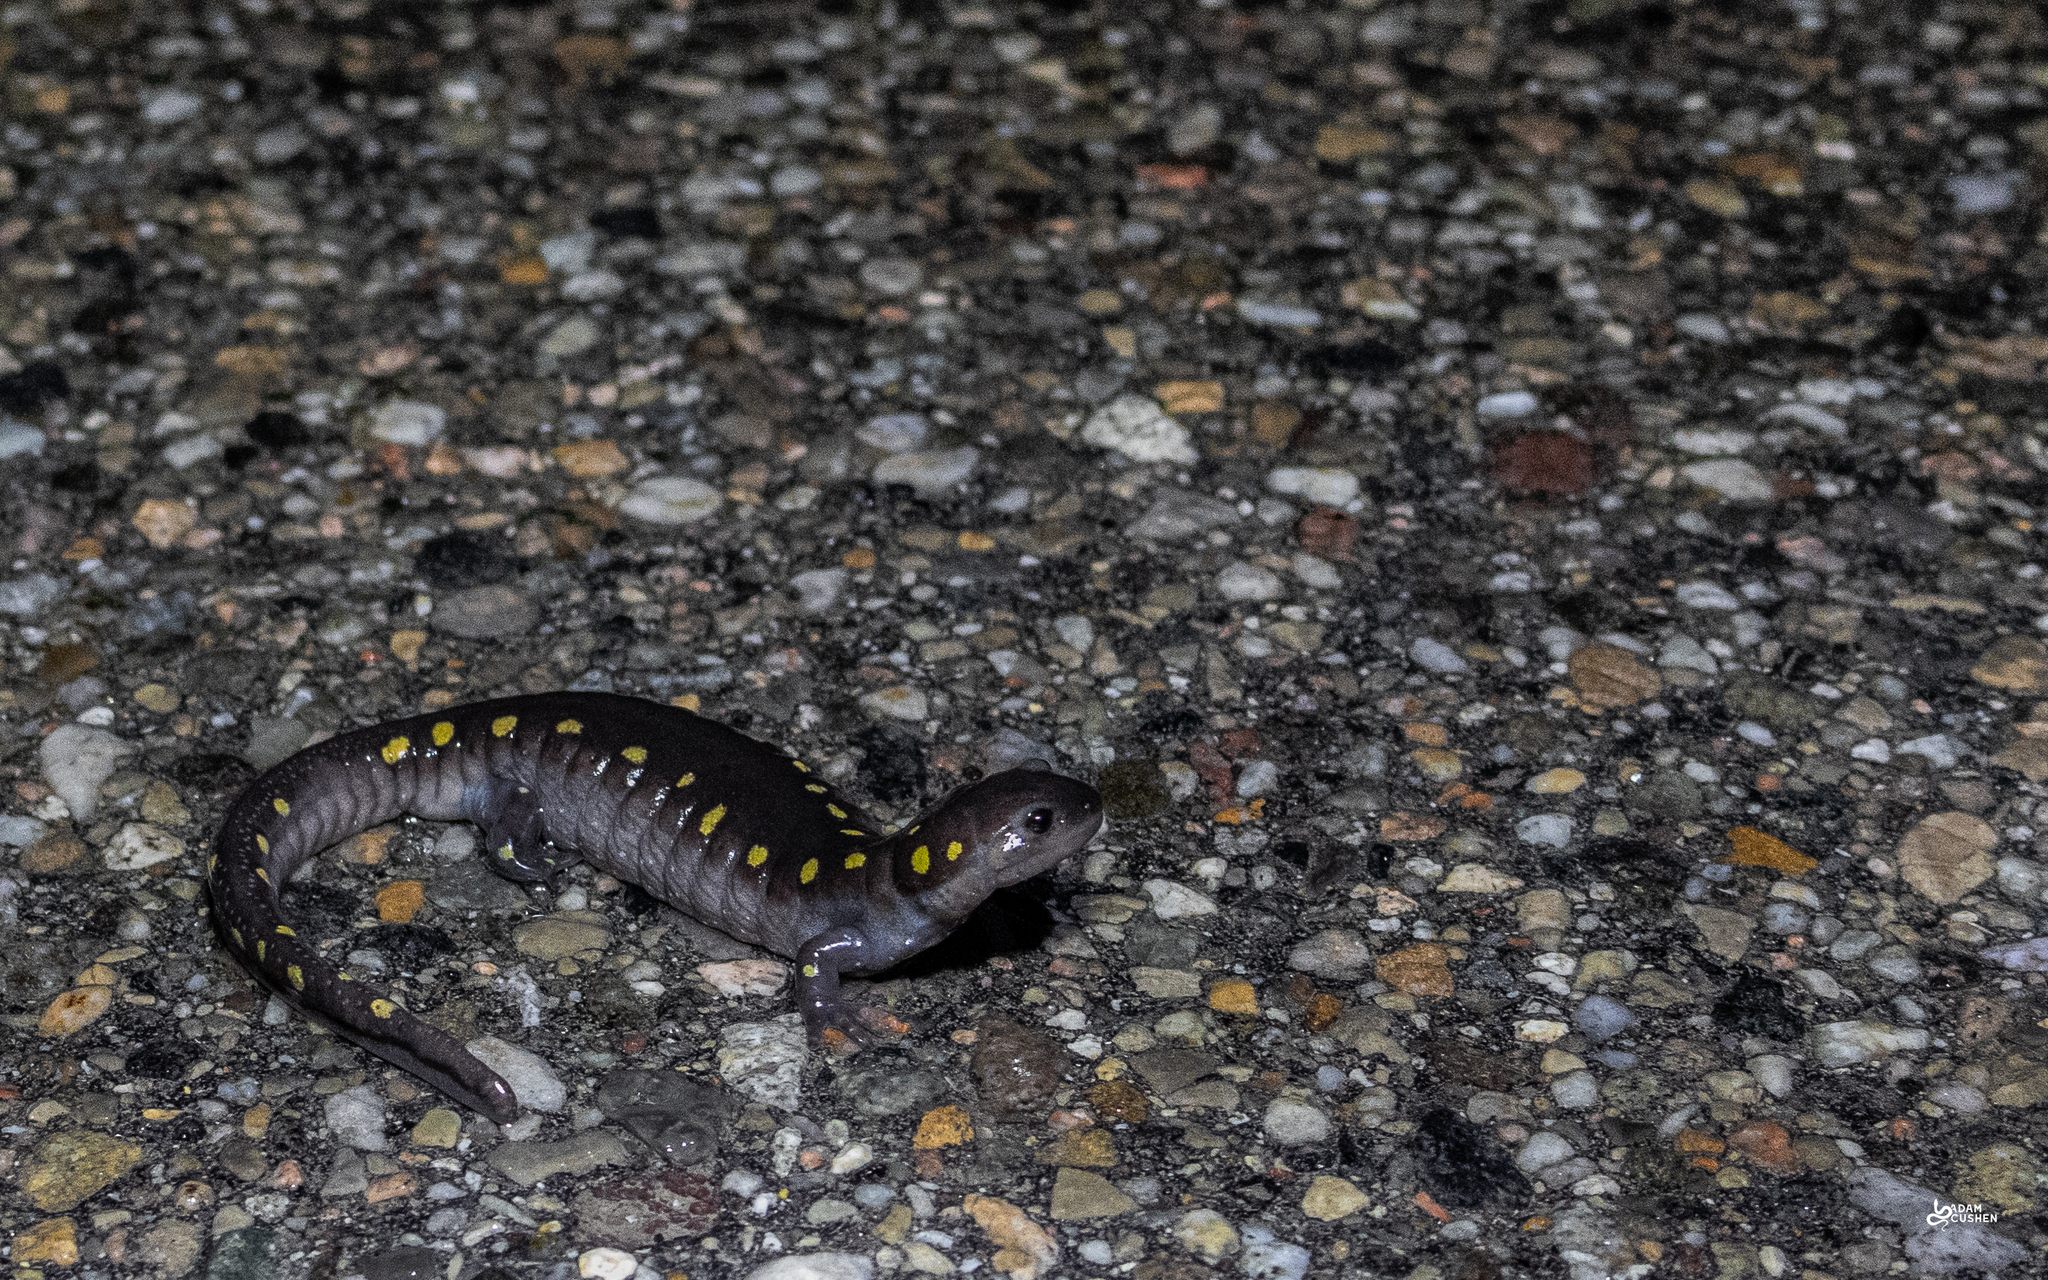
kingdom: Animalia
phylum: Chordata
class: Amphibia
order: Caudata
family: Ambystomatidae
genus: Ambystoma
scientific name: Ambystoma maculatum
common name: Spotted salamander
